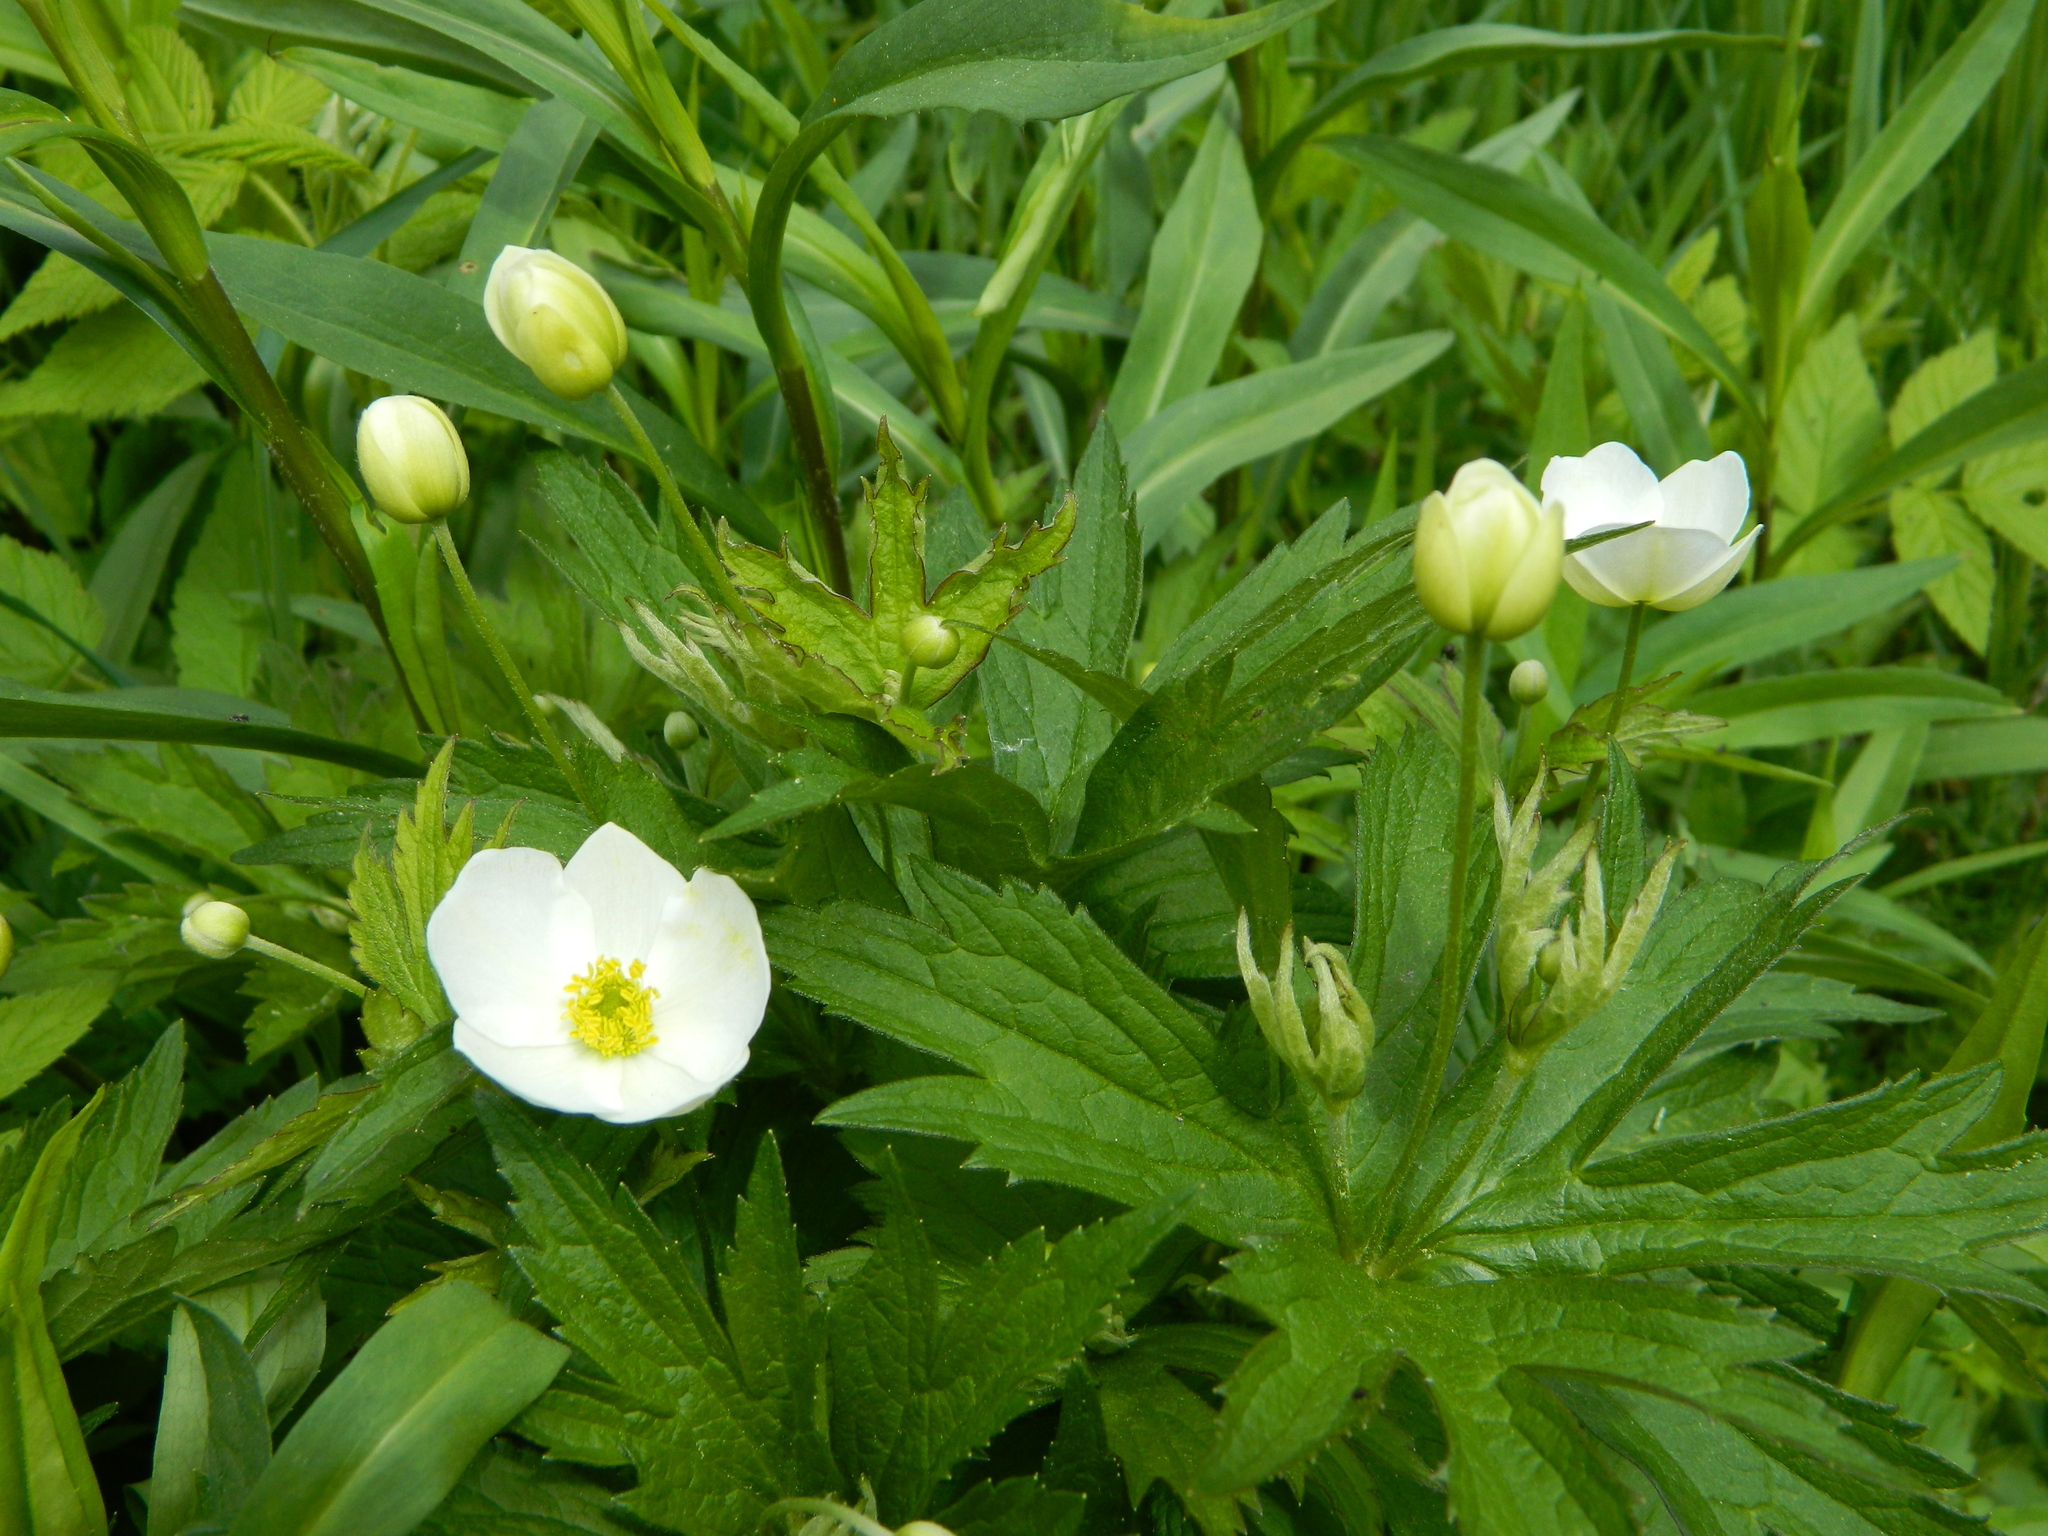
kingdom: Plantae
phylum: Tracheophyta
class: Magnoliopsida
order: Ranunculales
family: Ranunculaceae
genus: Anemonastrum
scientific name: Anemonastrum canadense
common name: Canada anemone
